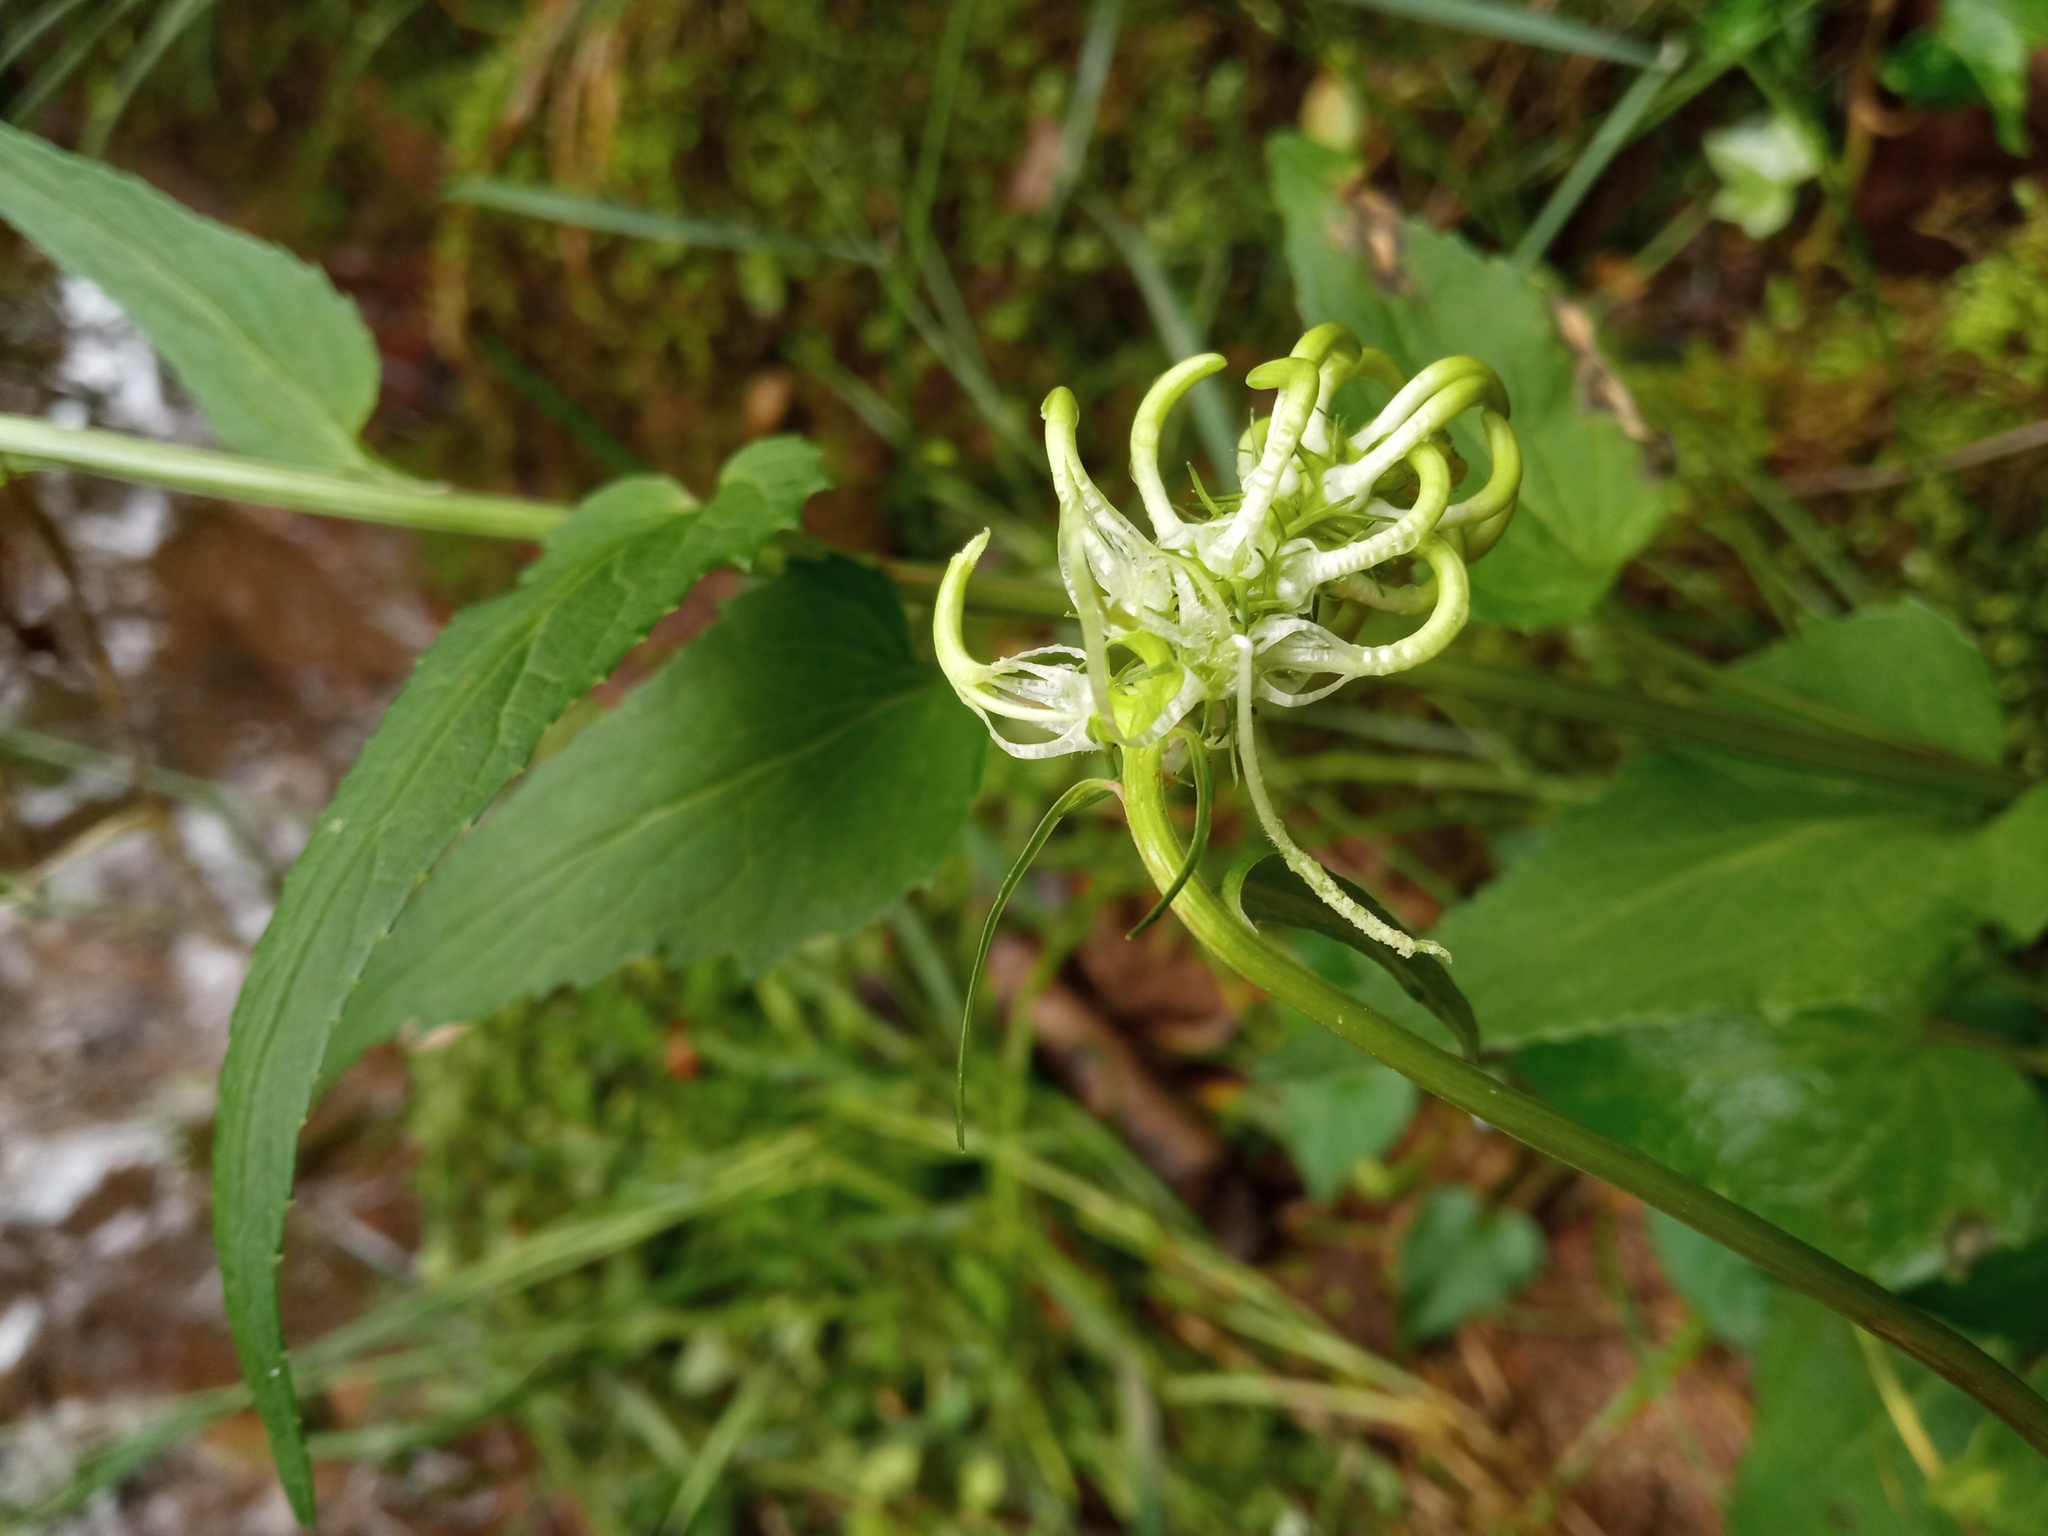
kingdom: Plantae
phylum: Tracheophyta
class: Magnoliopsida
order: Asterales
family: Campanulaceae
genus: Phyteuma
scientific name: Phyteuma spicatum
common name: Spiked rampion
